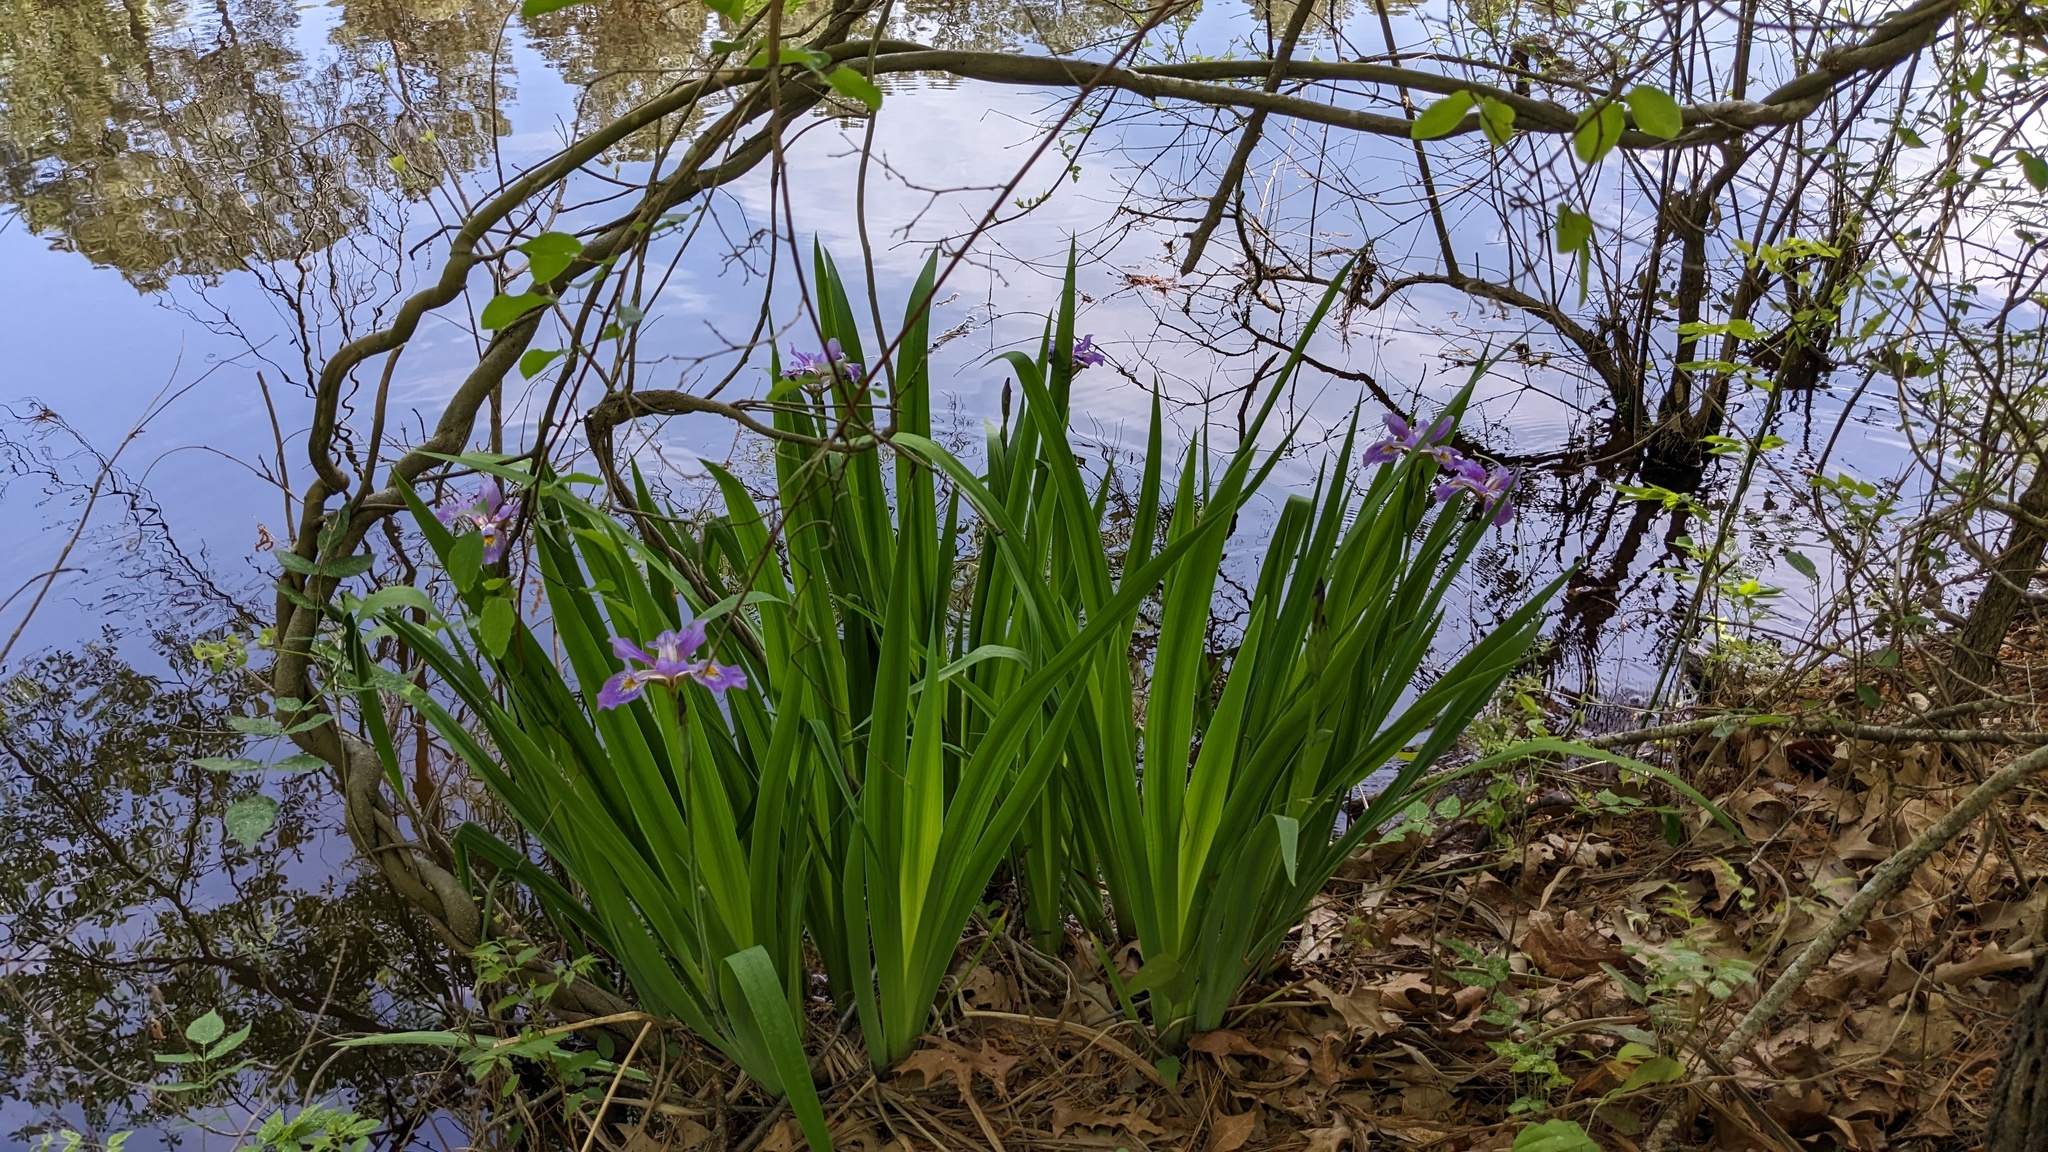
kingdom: Plantae
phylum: Tracheophyta
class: Liliopsida
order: Asparagales
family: Iridaceae
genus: Iris
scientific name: Iris virginica
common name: Southern blue flag
